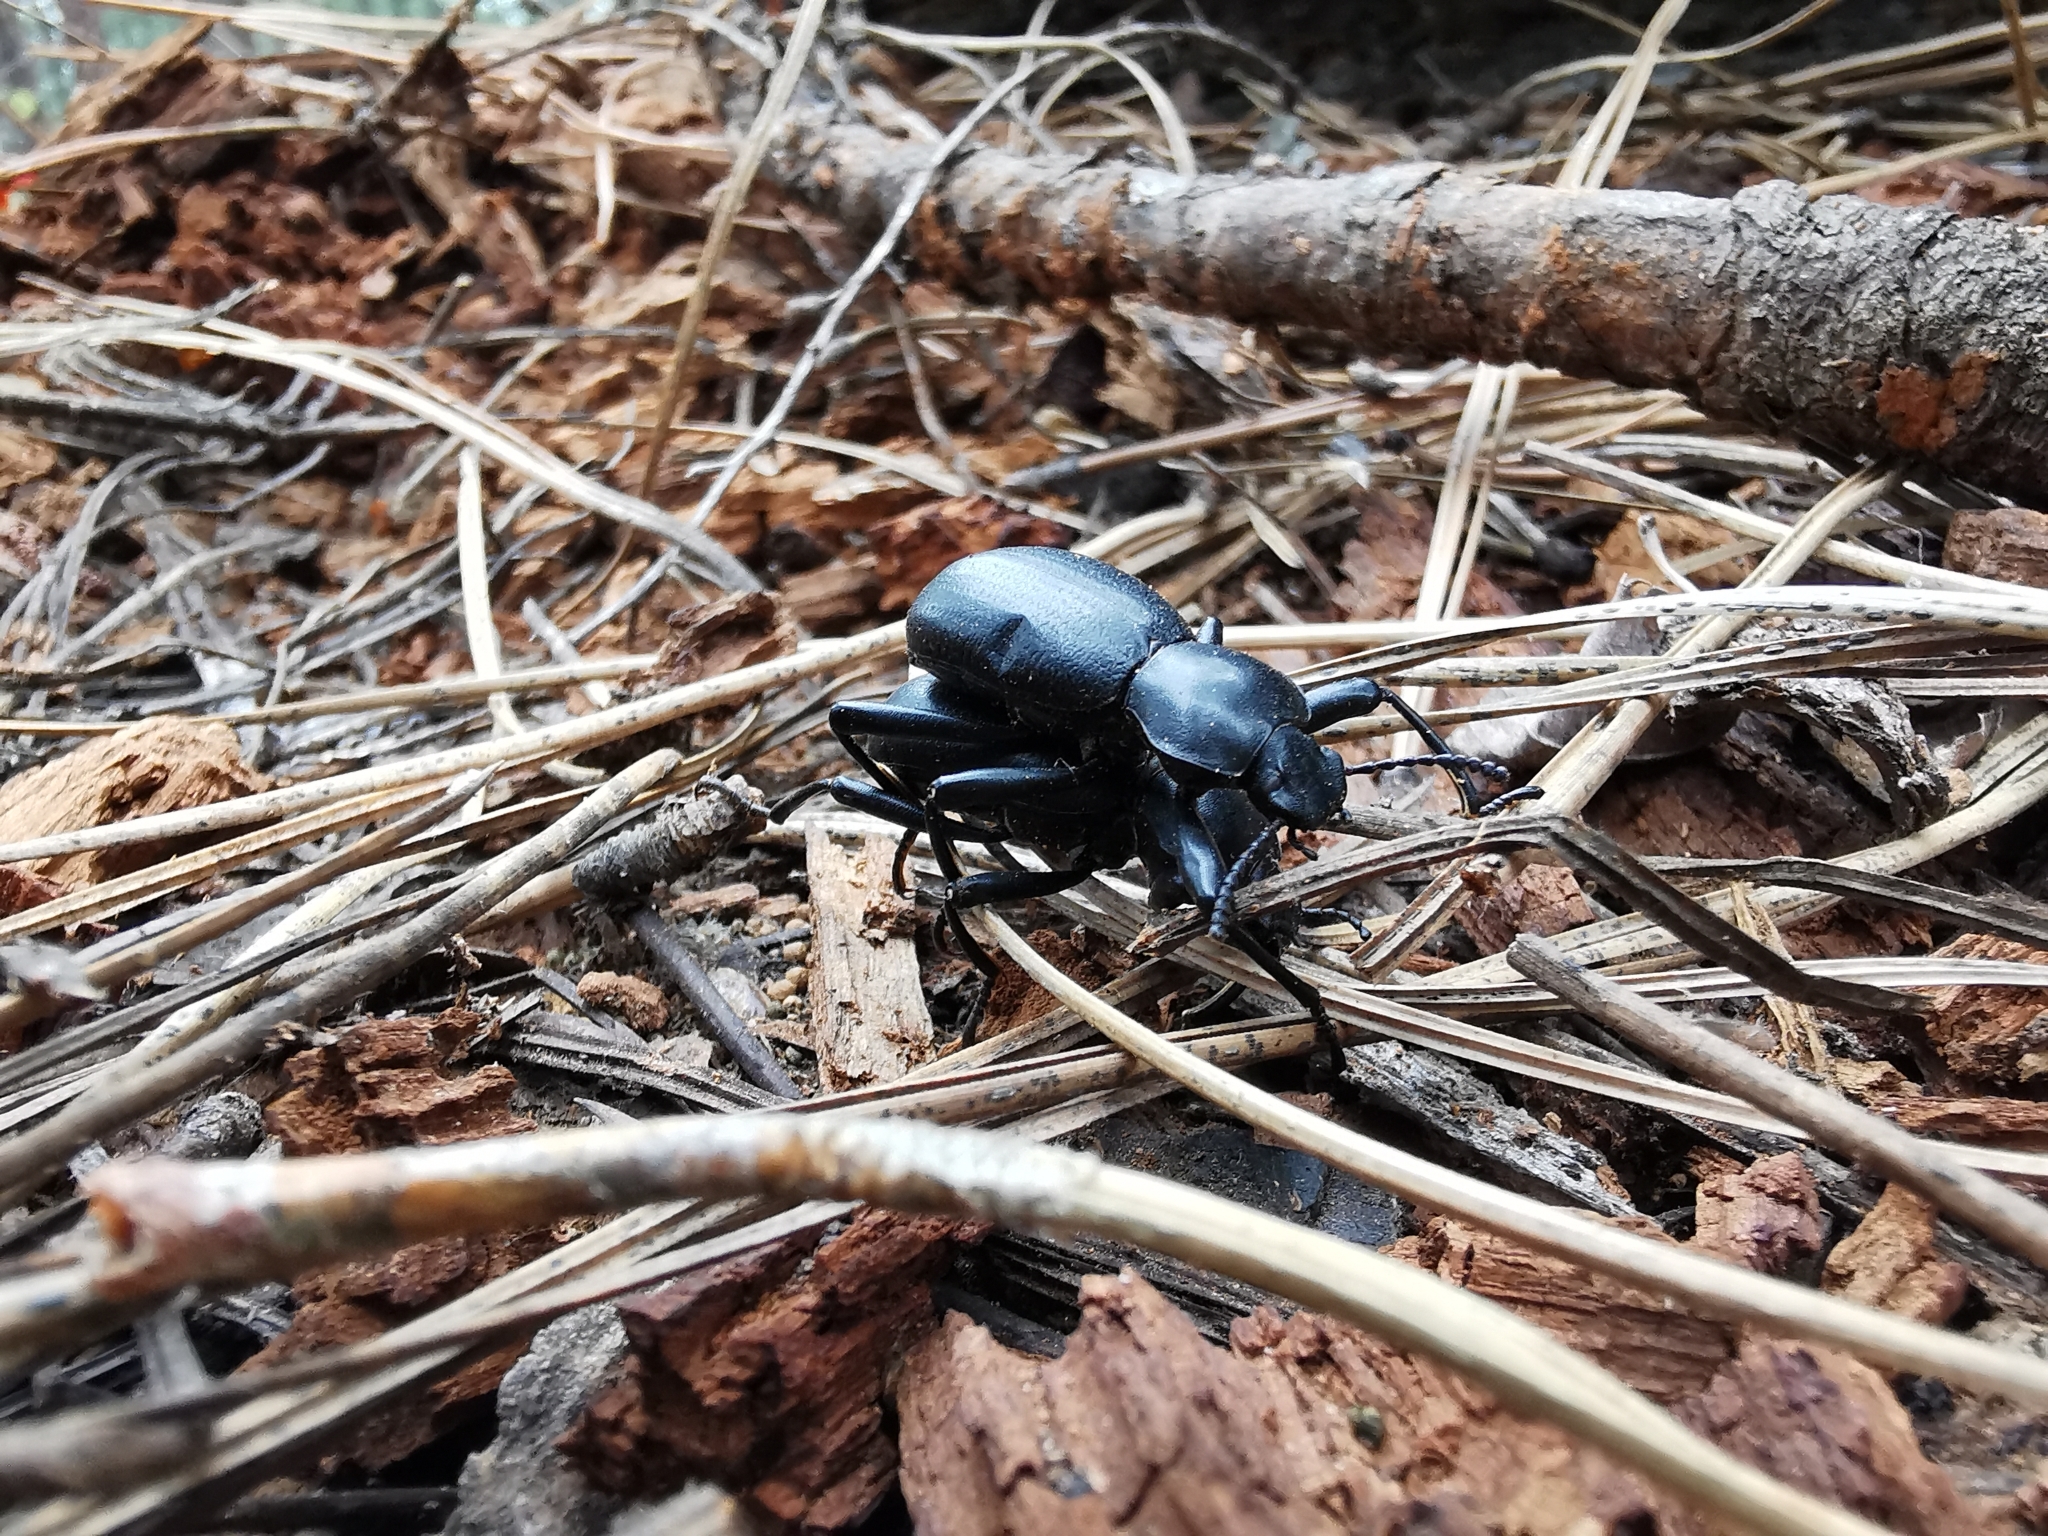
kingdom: Animalia
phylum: Arthropoda
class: Insecta
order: Coleoptera
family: Tenebrionidae
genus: Coelocnemis
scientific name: Coelocnemis dilaticollis
